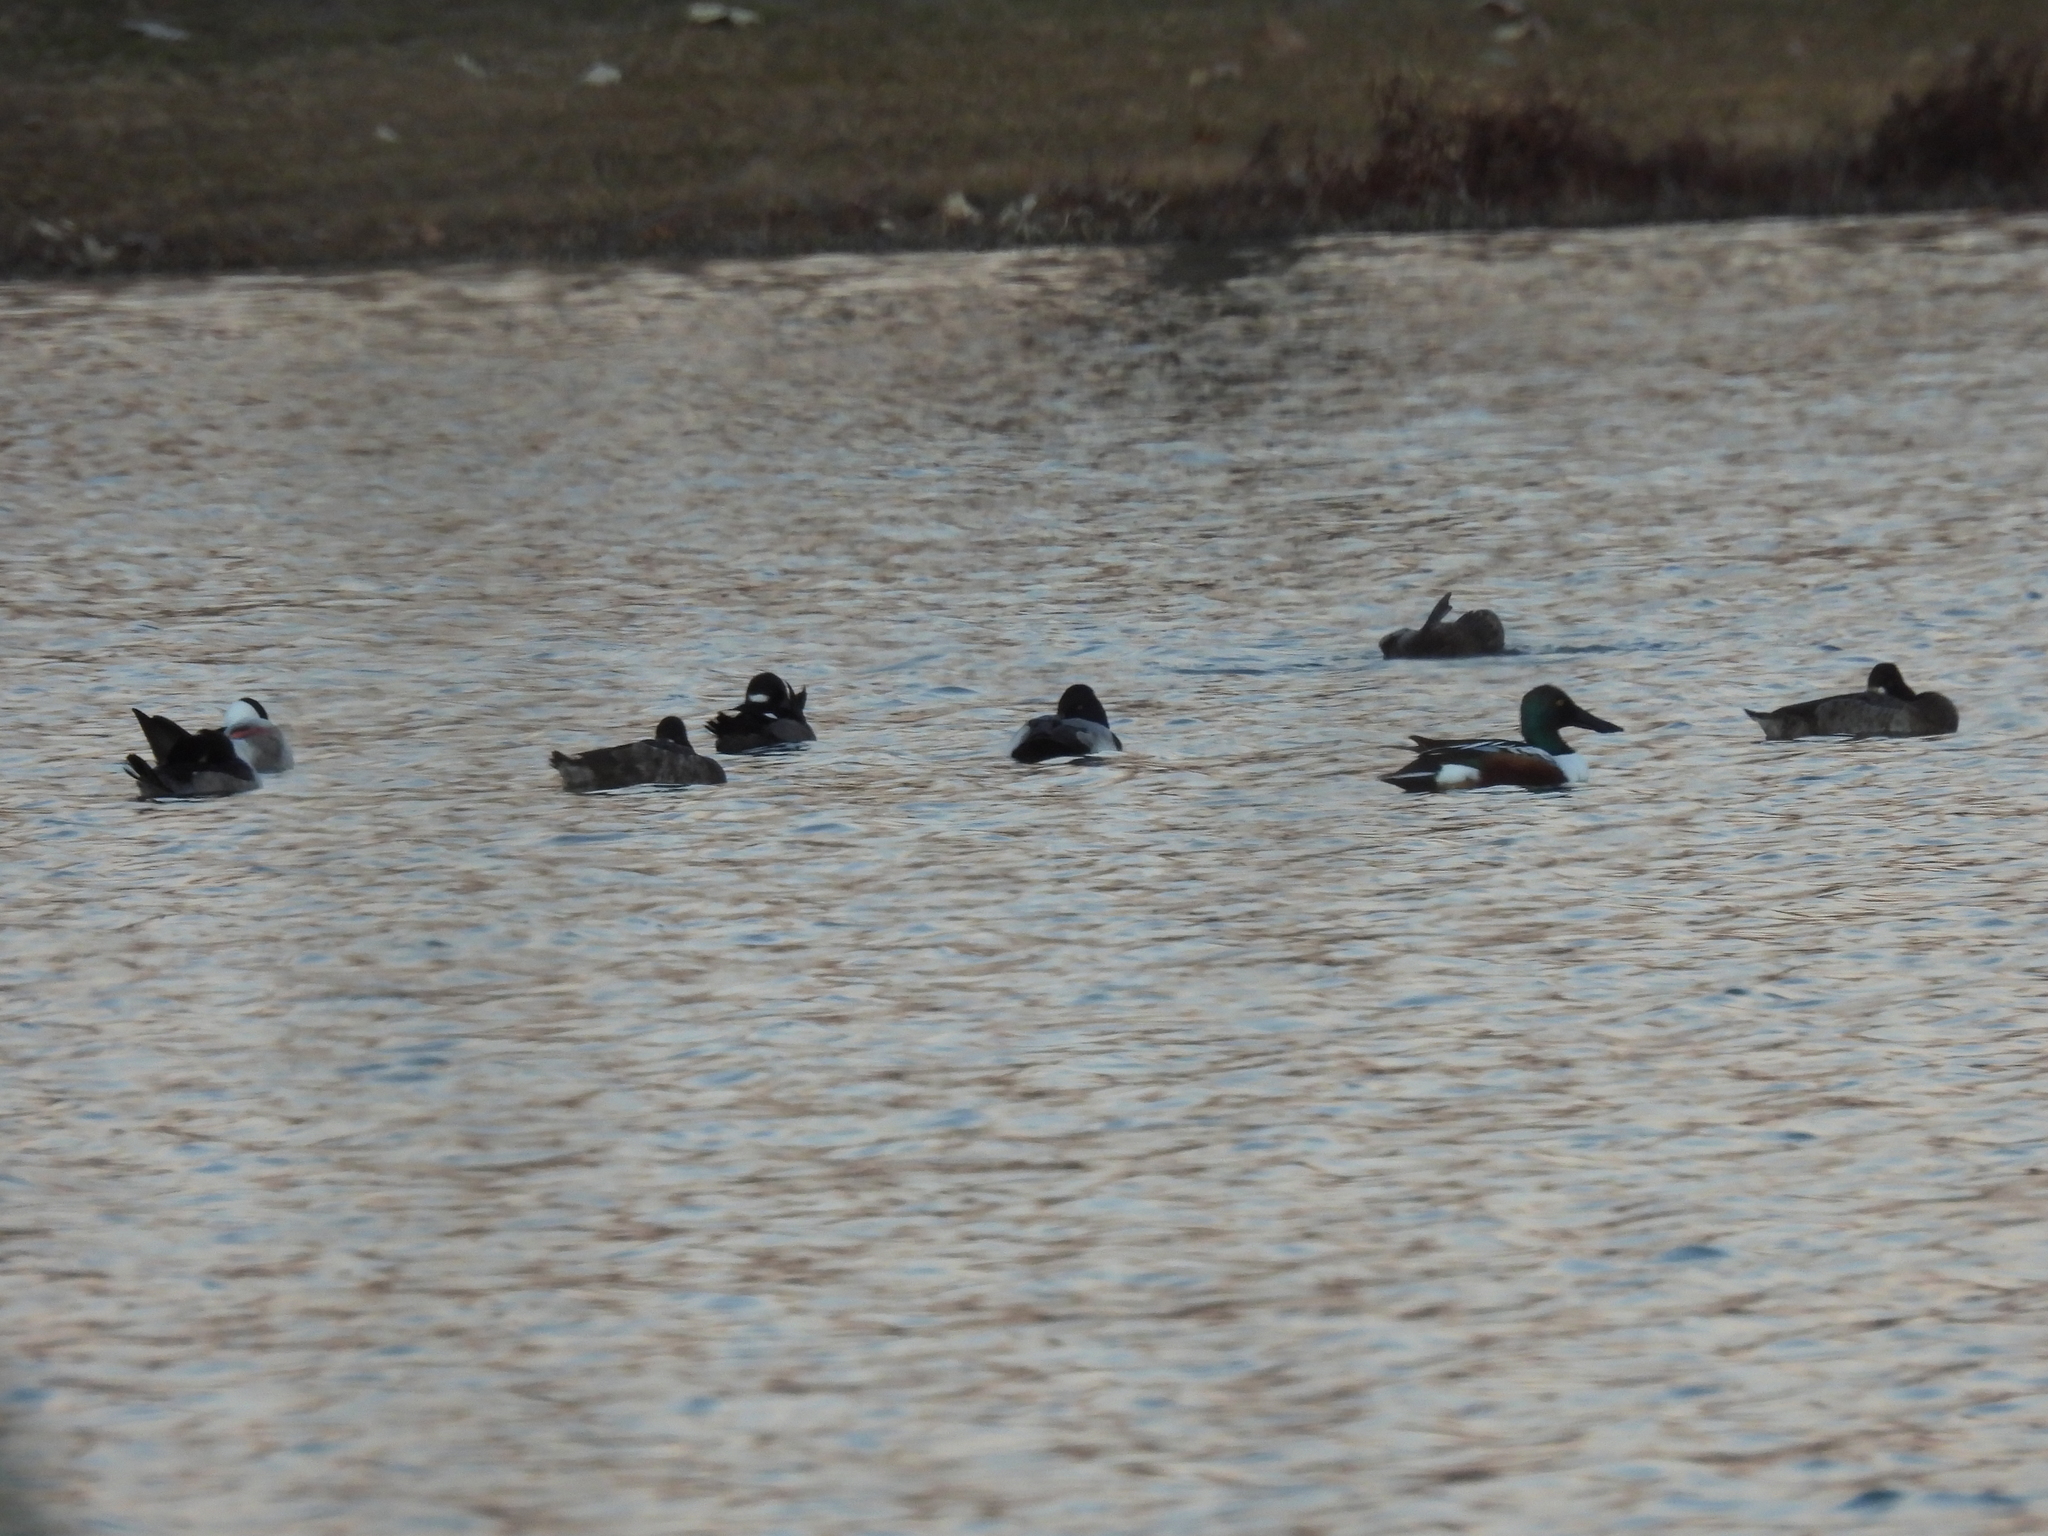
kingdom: Animalia
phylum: Chordata
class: Aves
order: Anseriformes
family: Anatidae
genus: Spatula
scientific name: Spatula clypeata
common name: Northern shoveler
